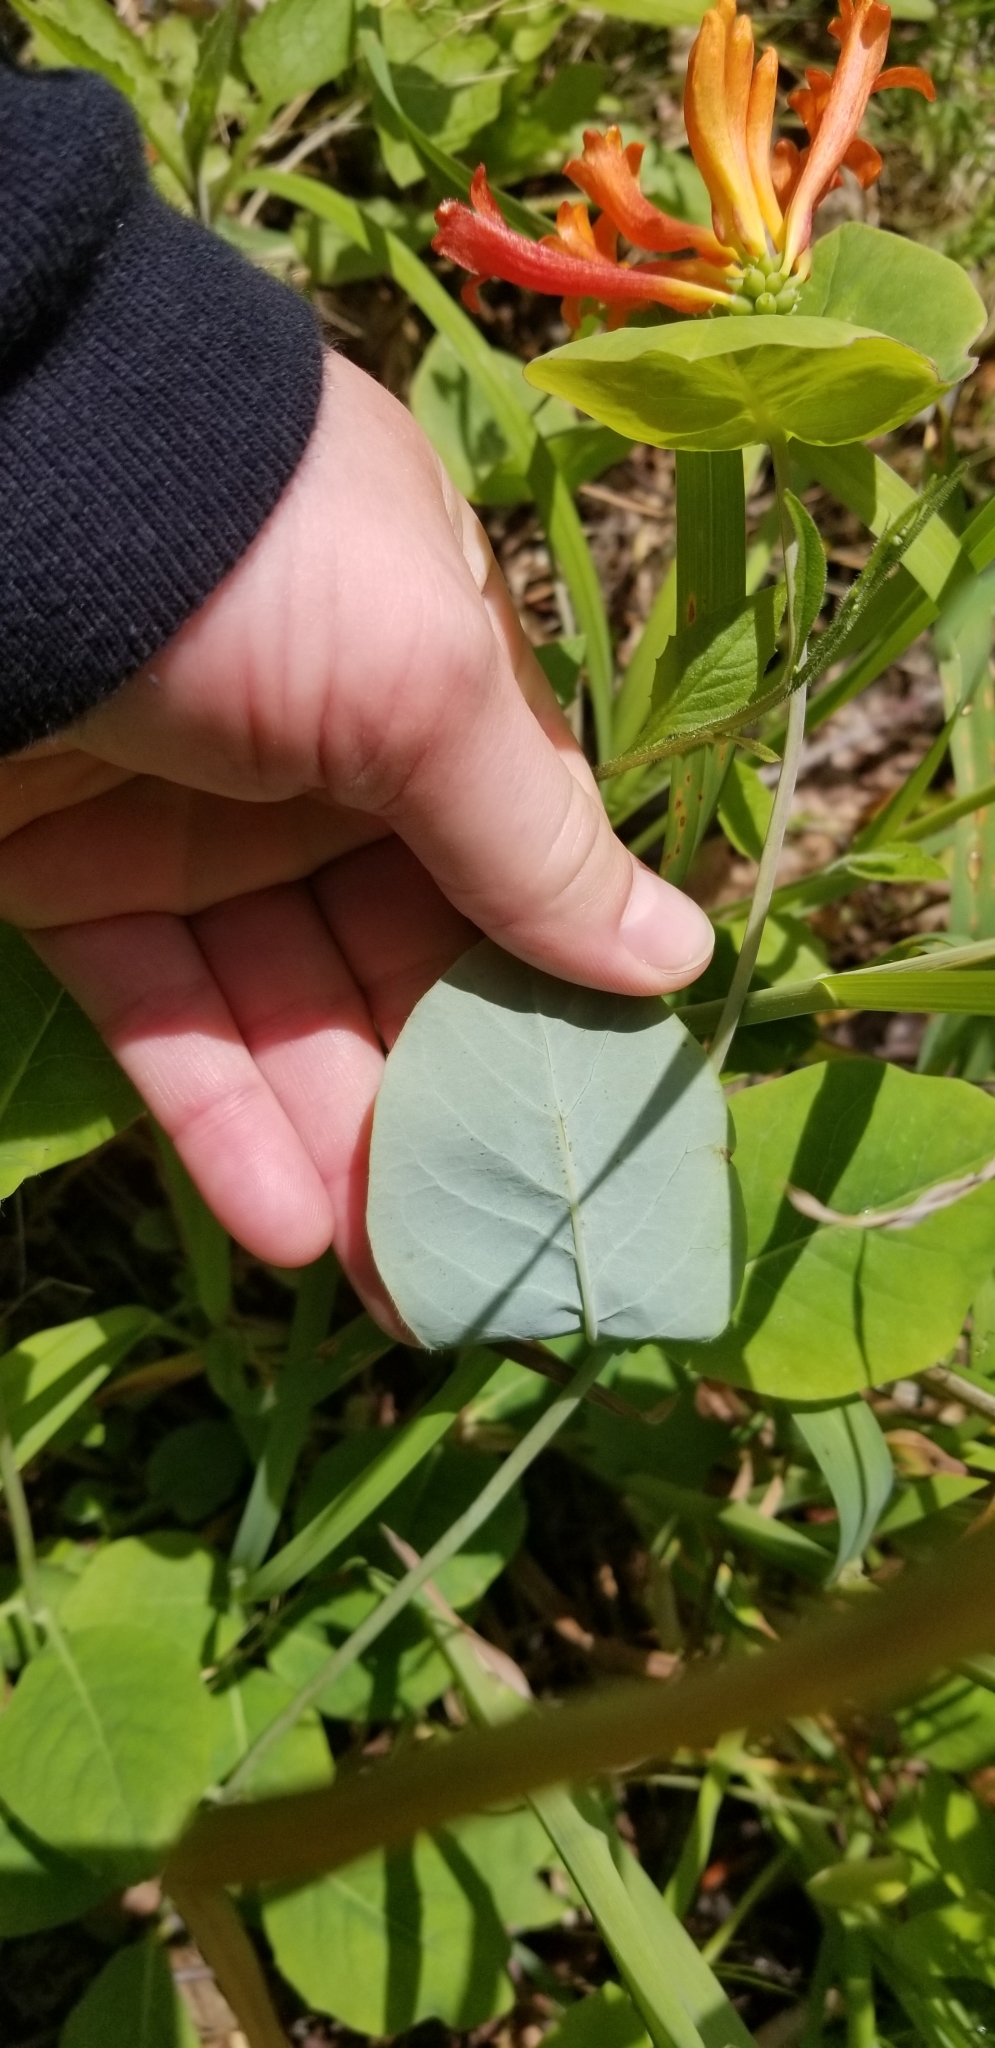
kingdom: Plantae
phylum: Tracheophyta
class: Magnoliopsida
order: Dipsacales
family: Caprifoliaceae
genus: Lonicera
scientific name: Lonicera ciliosa
